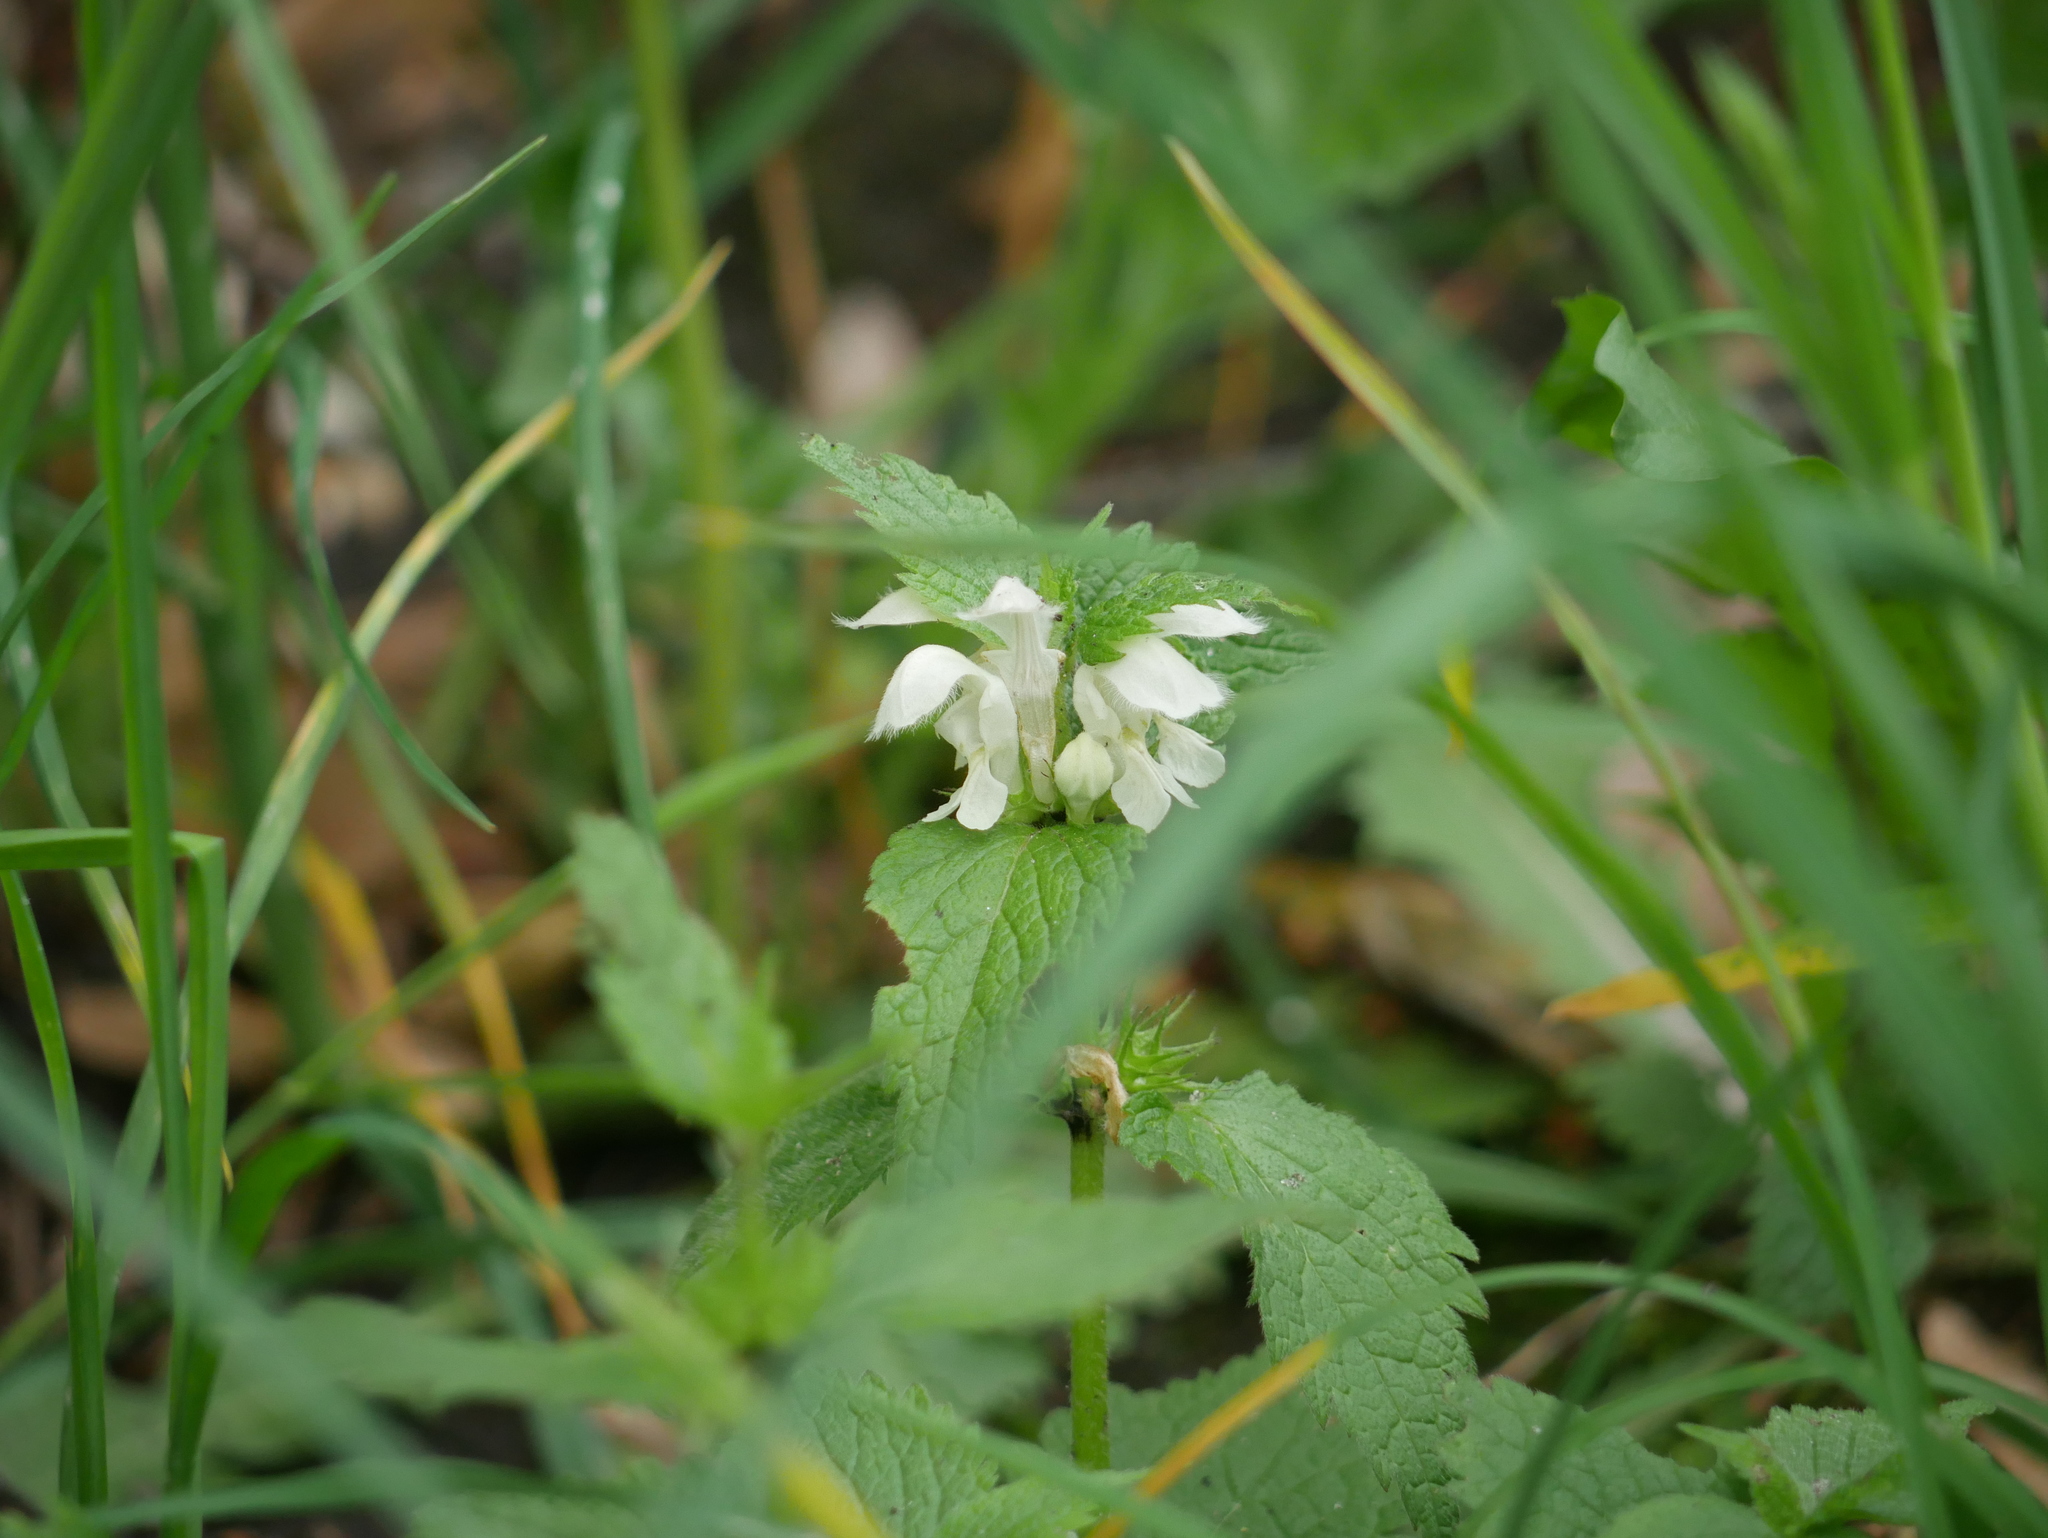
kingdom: Plantae
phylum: Tracheophyta
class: Magnoliopsida
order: Lamiales
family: Lamiaceae
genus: Lamium
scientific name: Lamium album
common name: White dead-nettle
